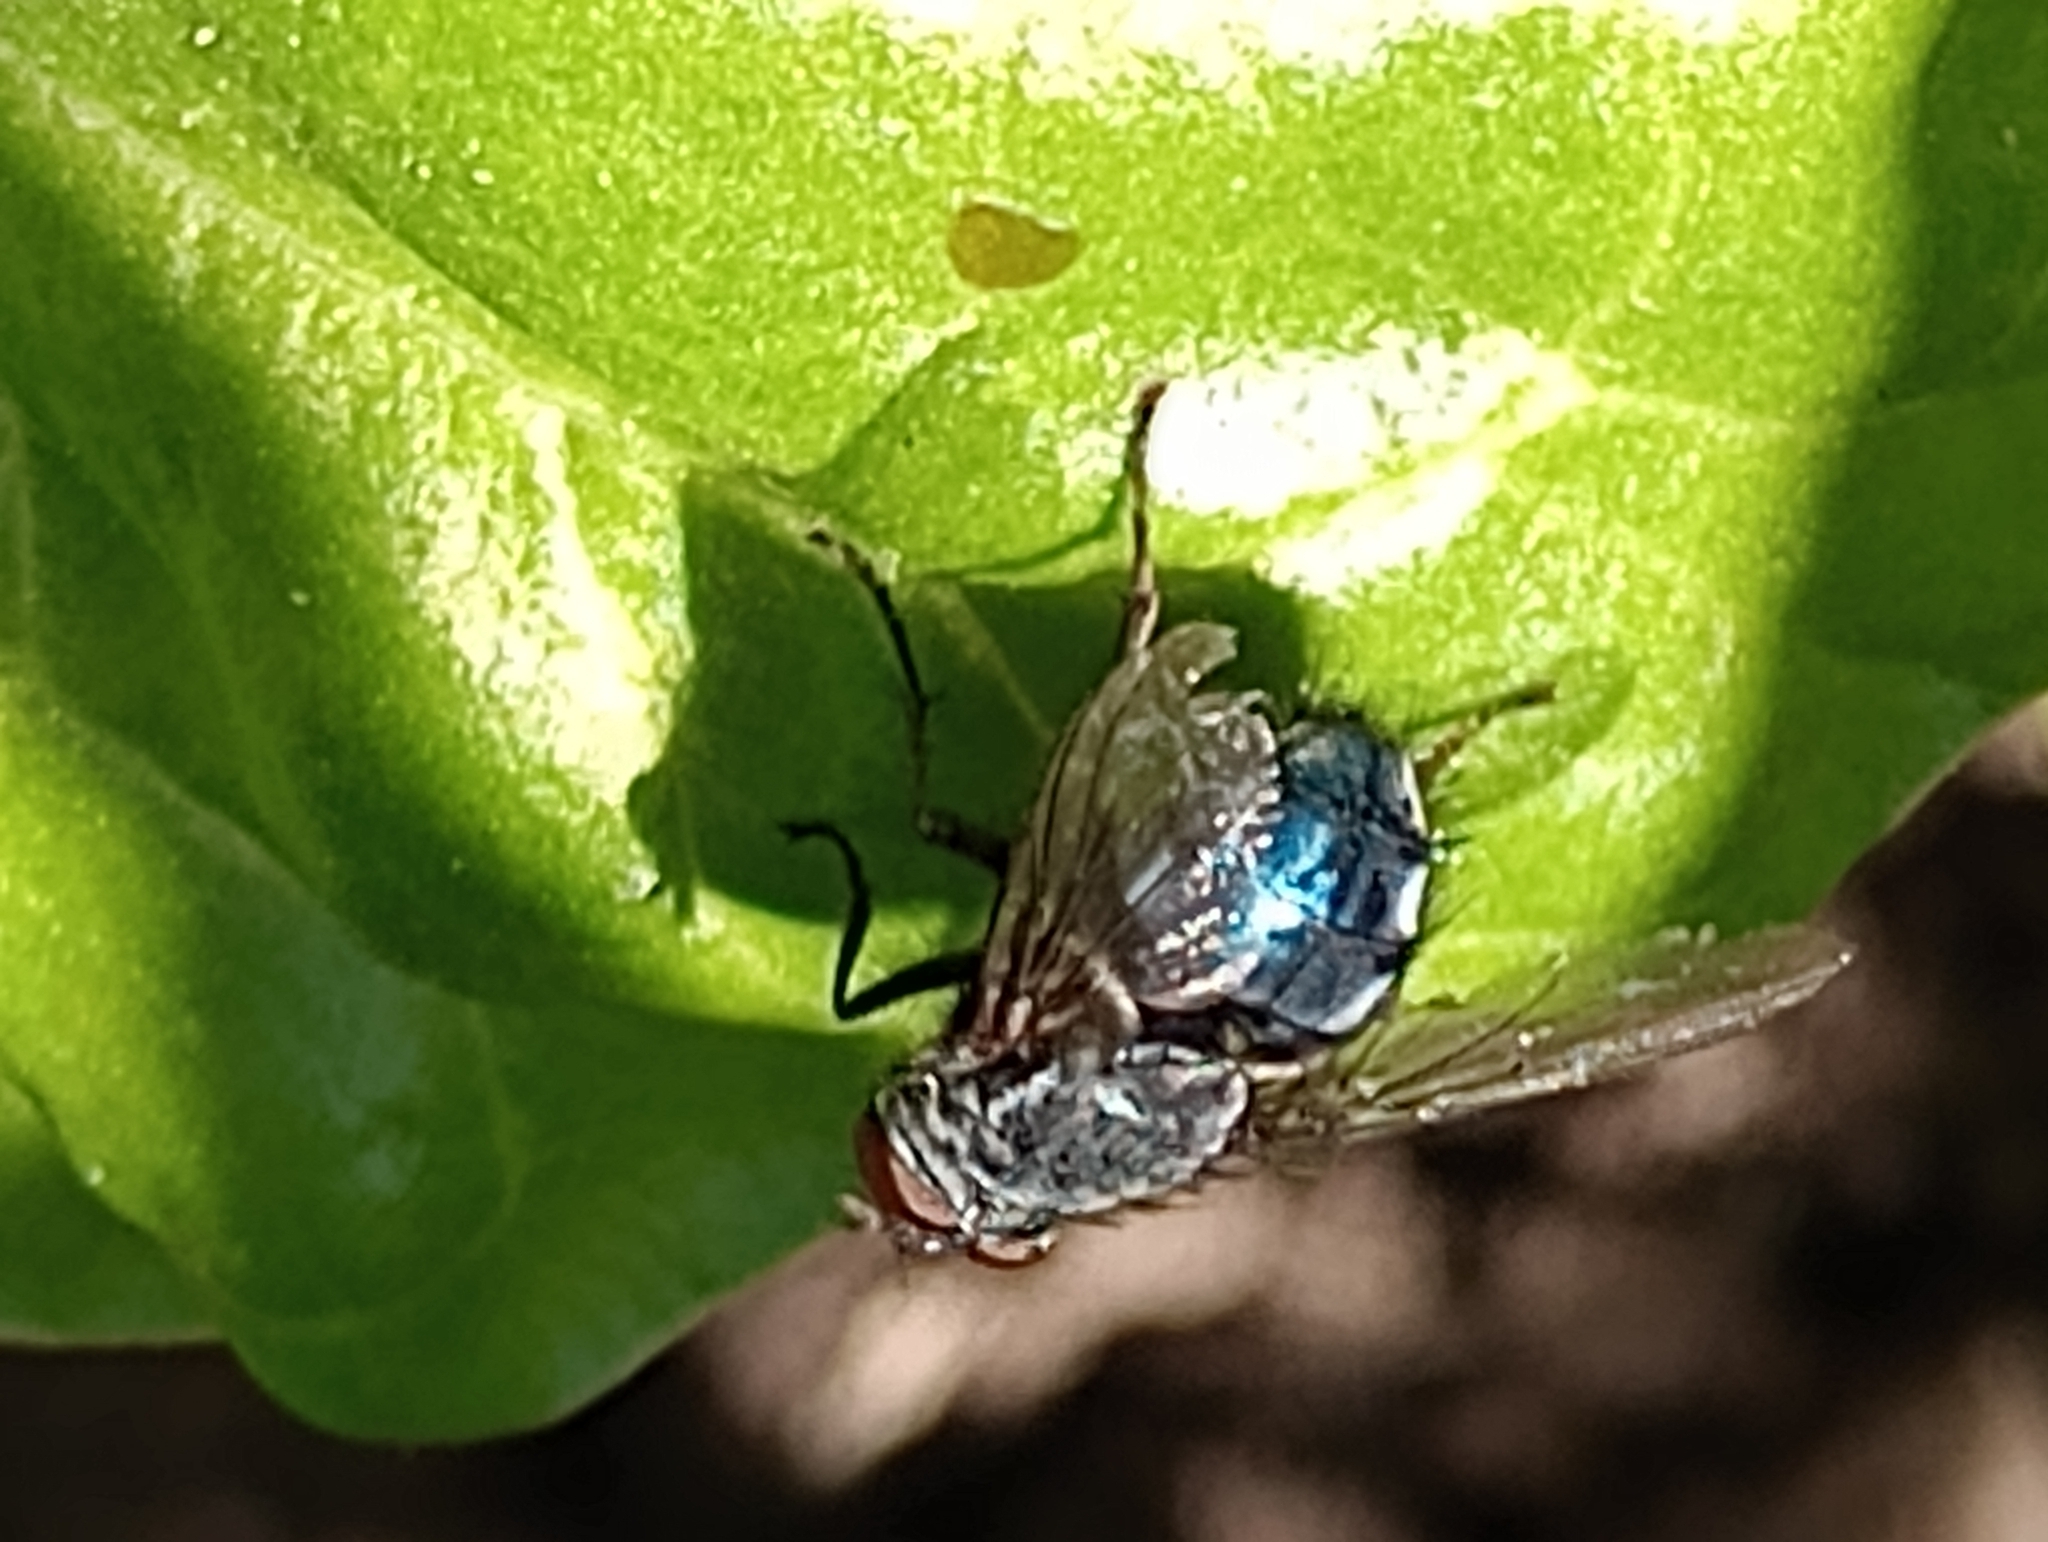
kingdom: Animalia
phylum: Arthropoda
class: Insecta
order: Diptera
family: Calliphoridae
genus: Calliphora
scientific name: Calliphora vicina
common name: Common blow flie
